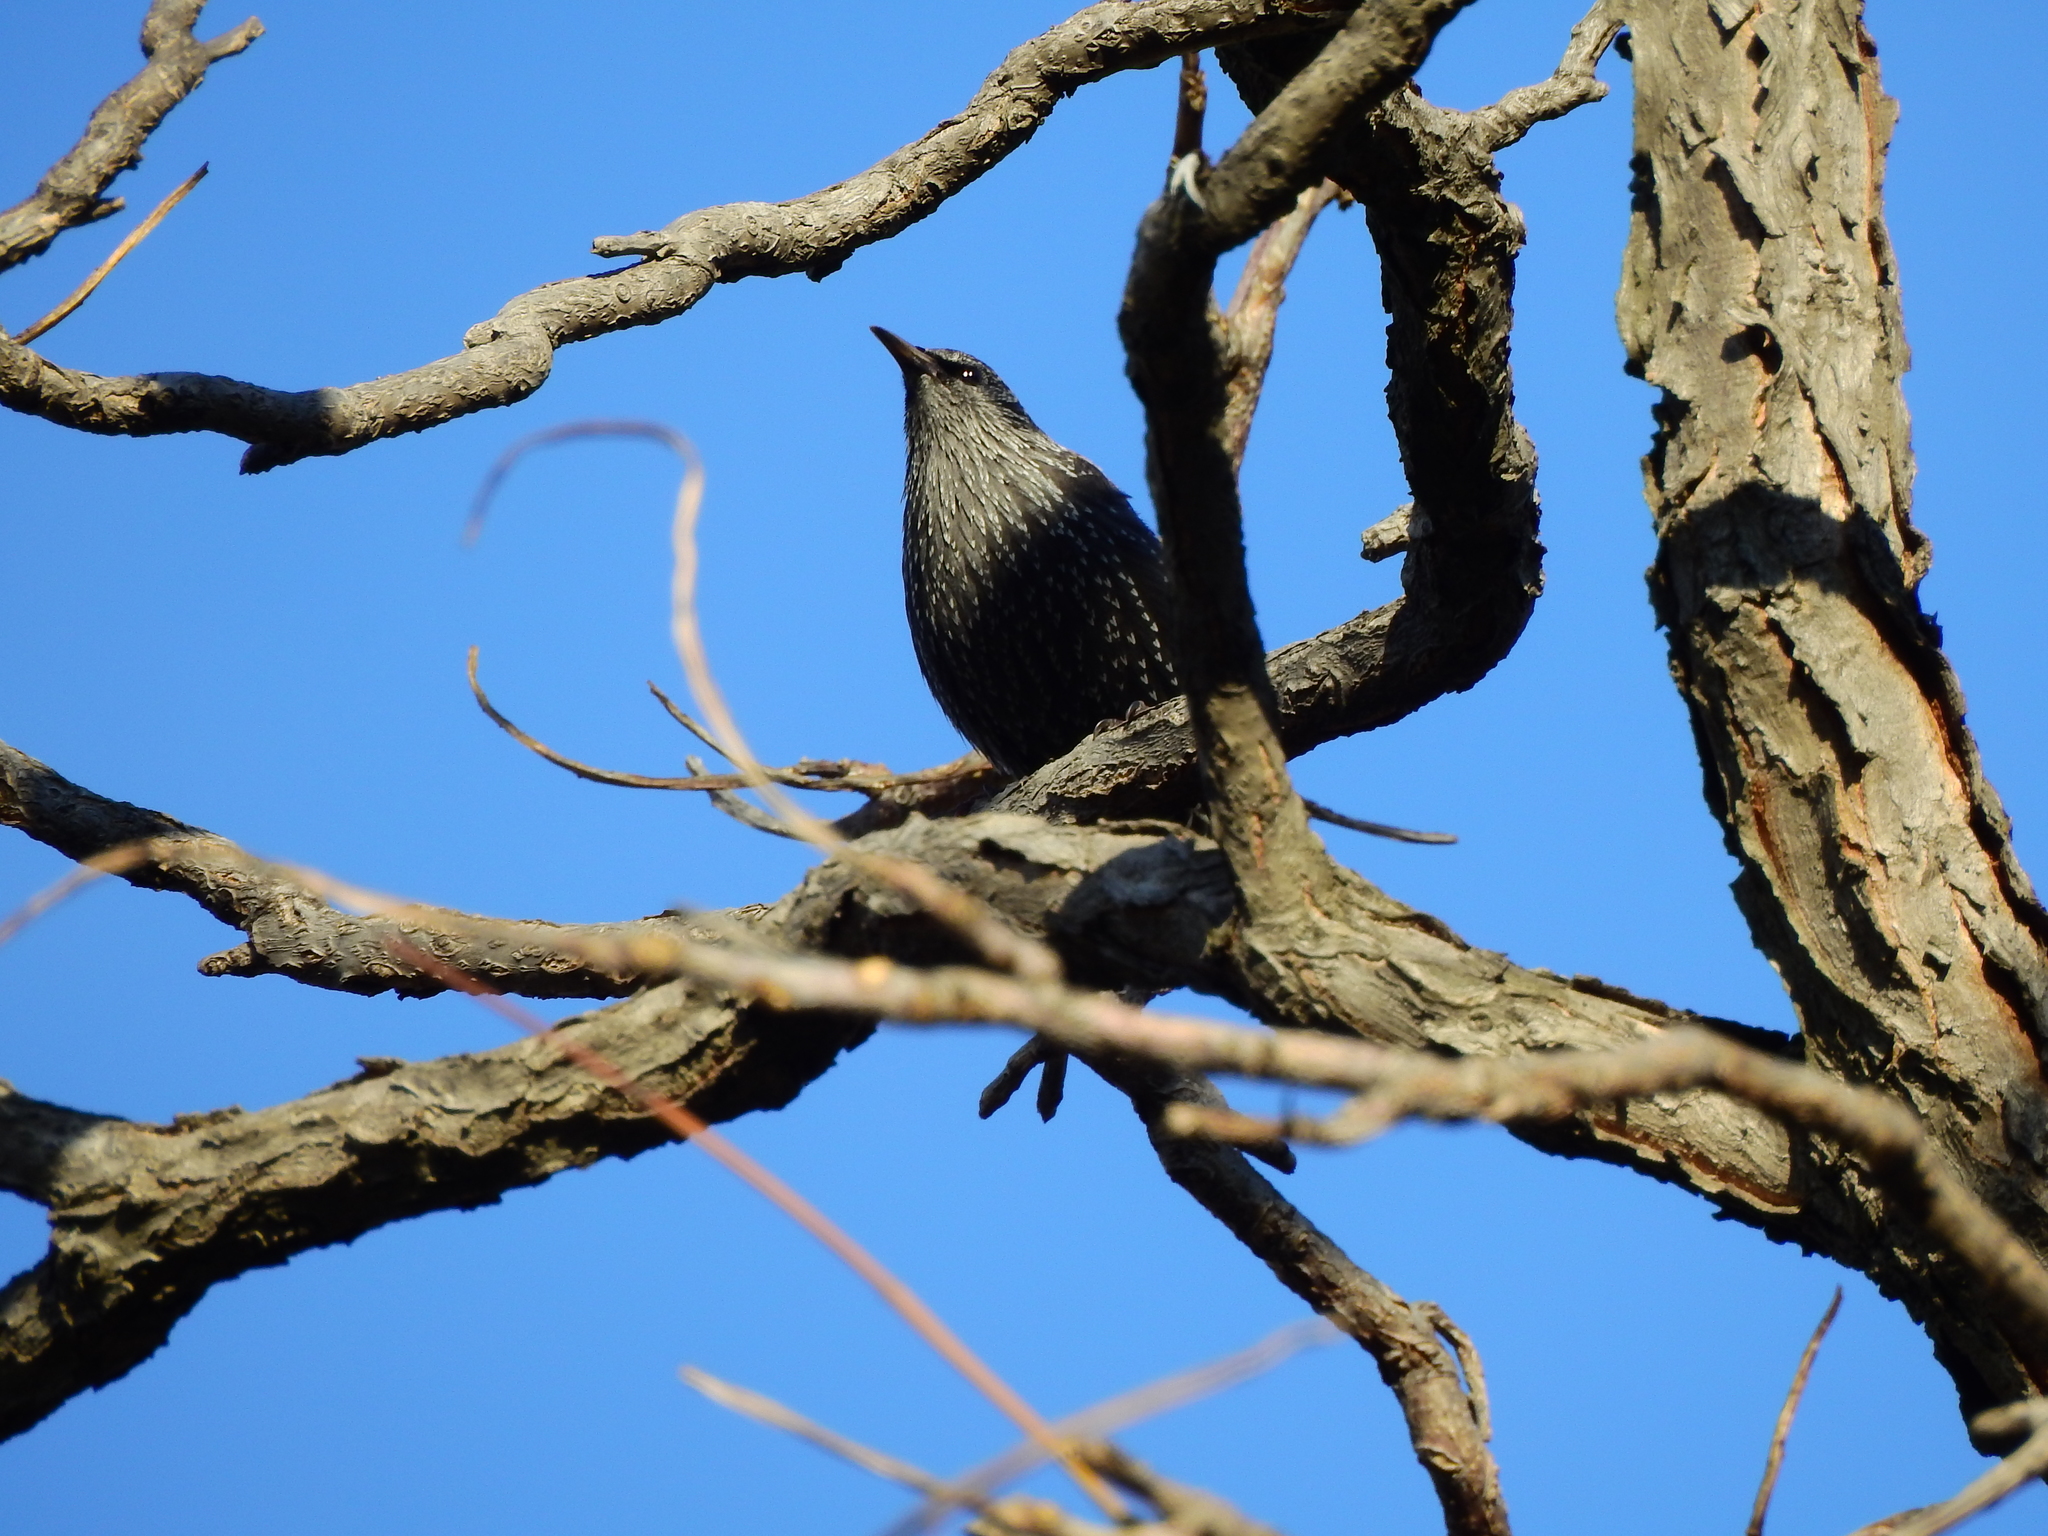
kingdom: Animalia
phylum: Chordata
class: Aves
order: Passeriformes
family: Sturnidae
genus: Sturnus
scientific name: Sturnus vulgaris
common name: Common starling
